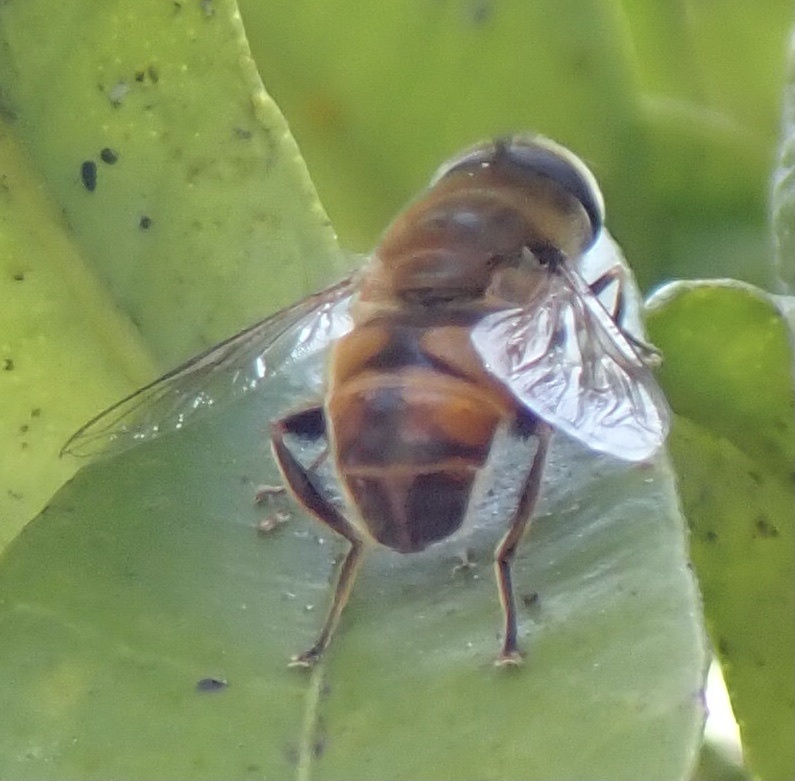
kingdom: Animalia
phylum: Arthropoda
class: Insecta
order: Diptera
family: Syrphidae
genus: Eristalis
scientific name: Eristalis tenax
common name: Drone fly
